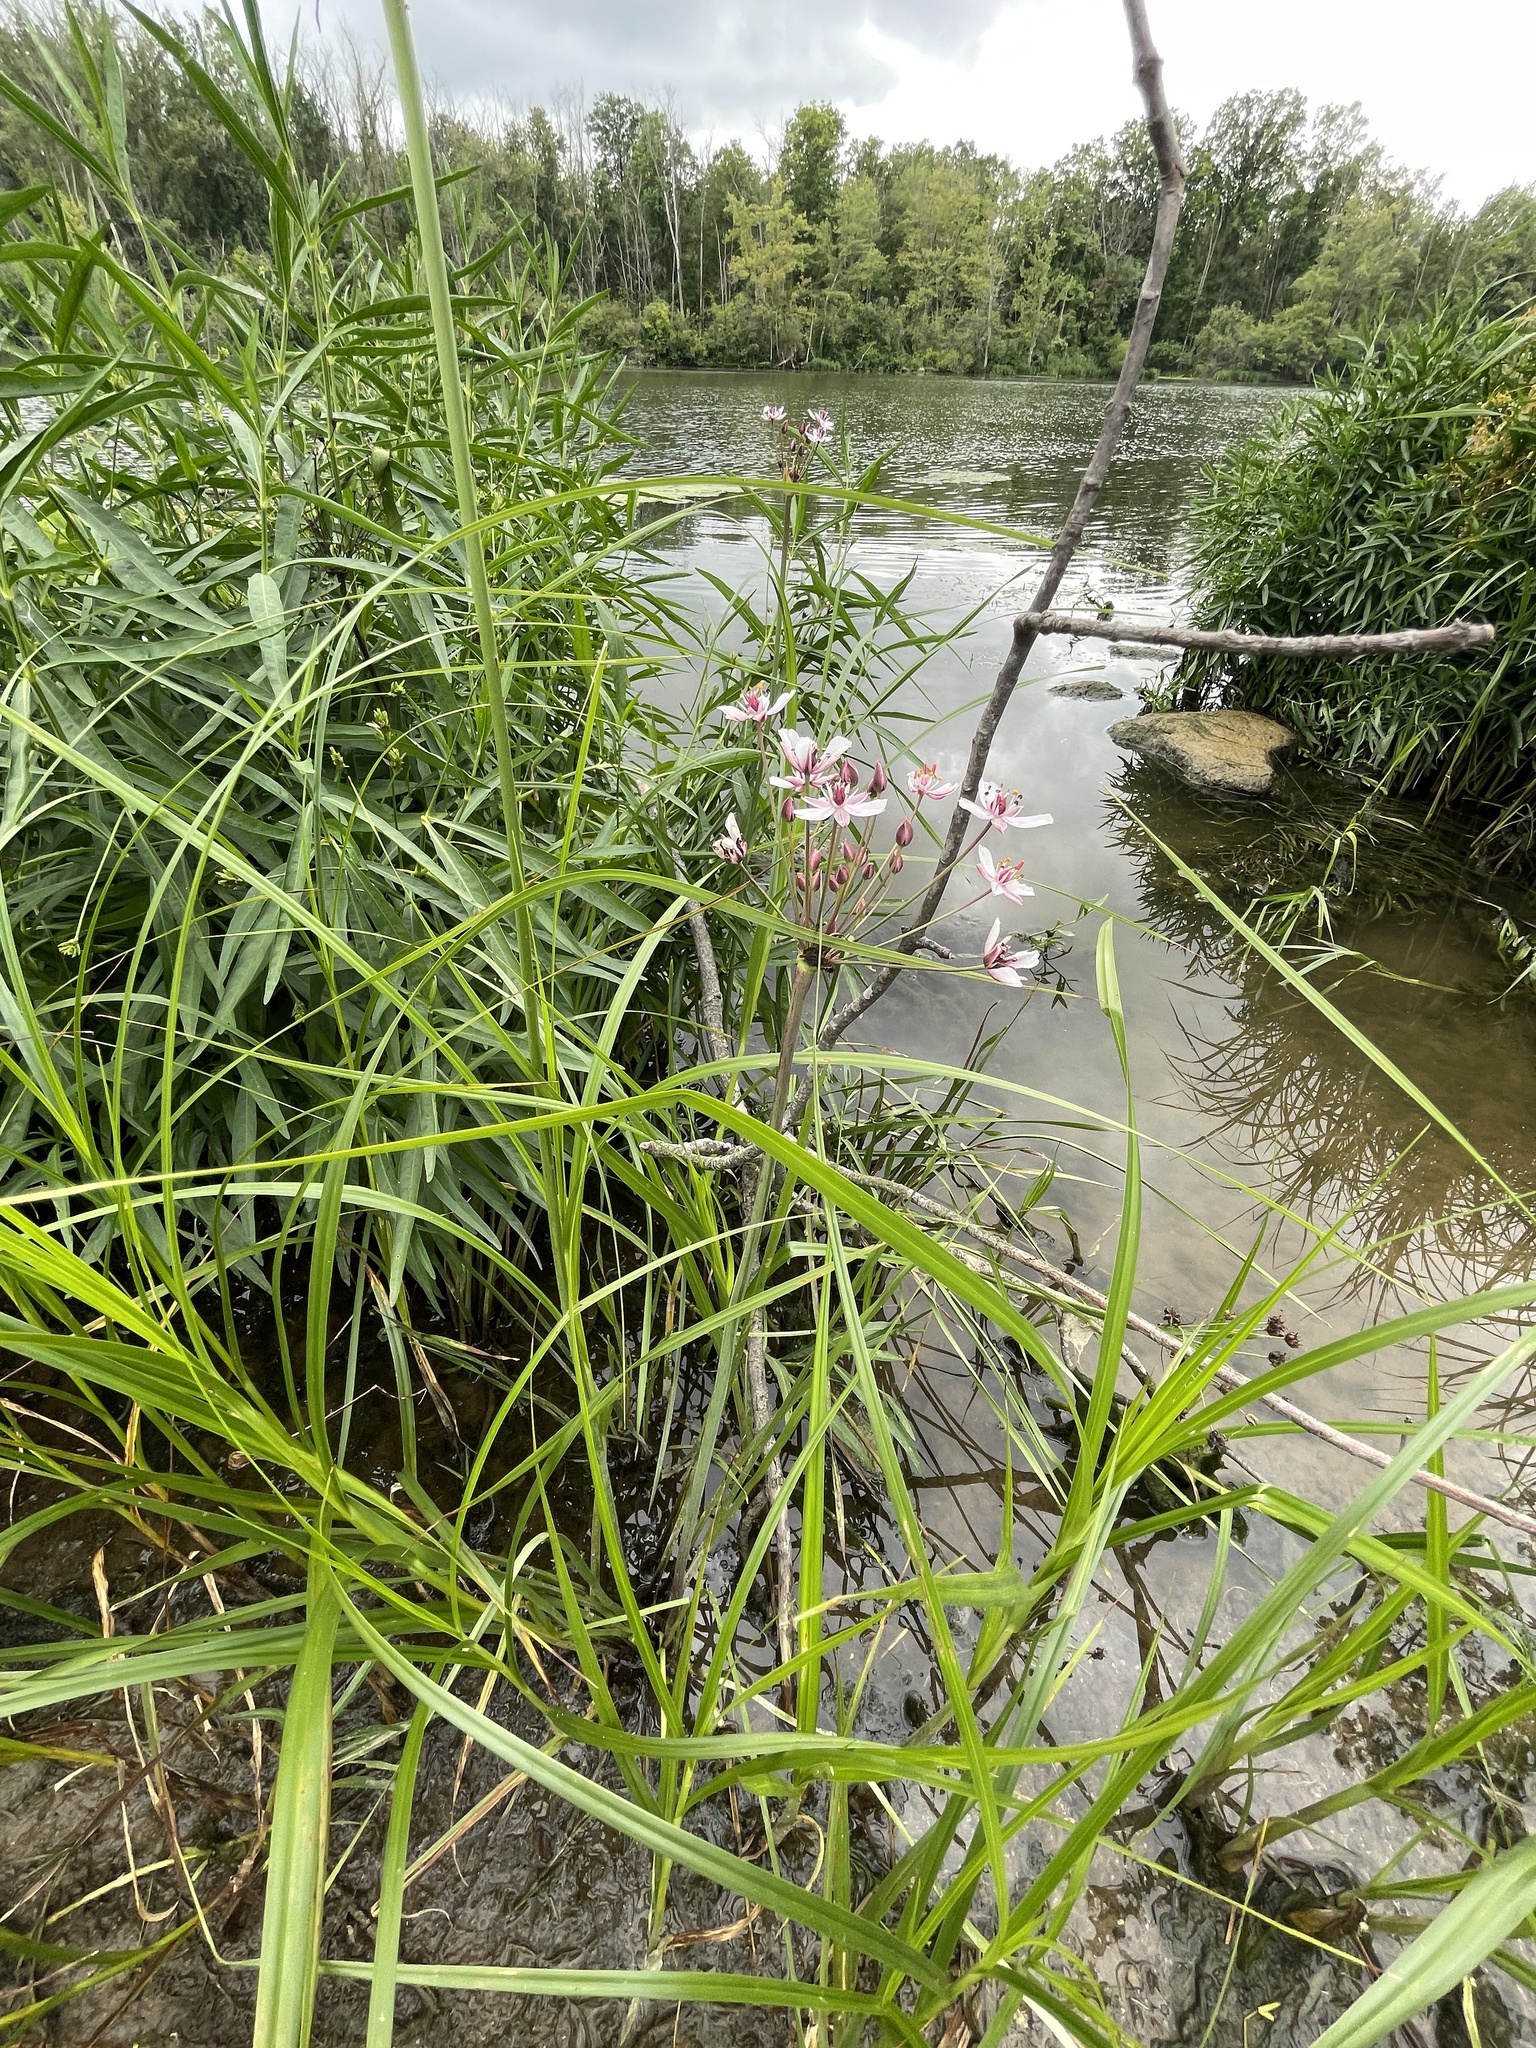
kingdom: Plantae
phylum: Tracheophyta
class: Liliopsida
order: Alismatales
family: Butomaceae
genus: Butomus
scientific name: Butomus umbellatus
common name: Flowering-rush
